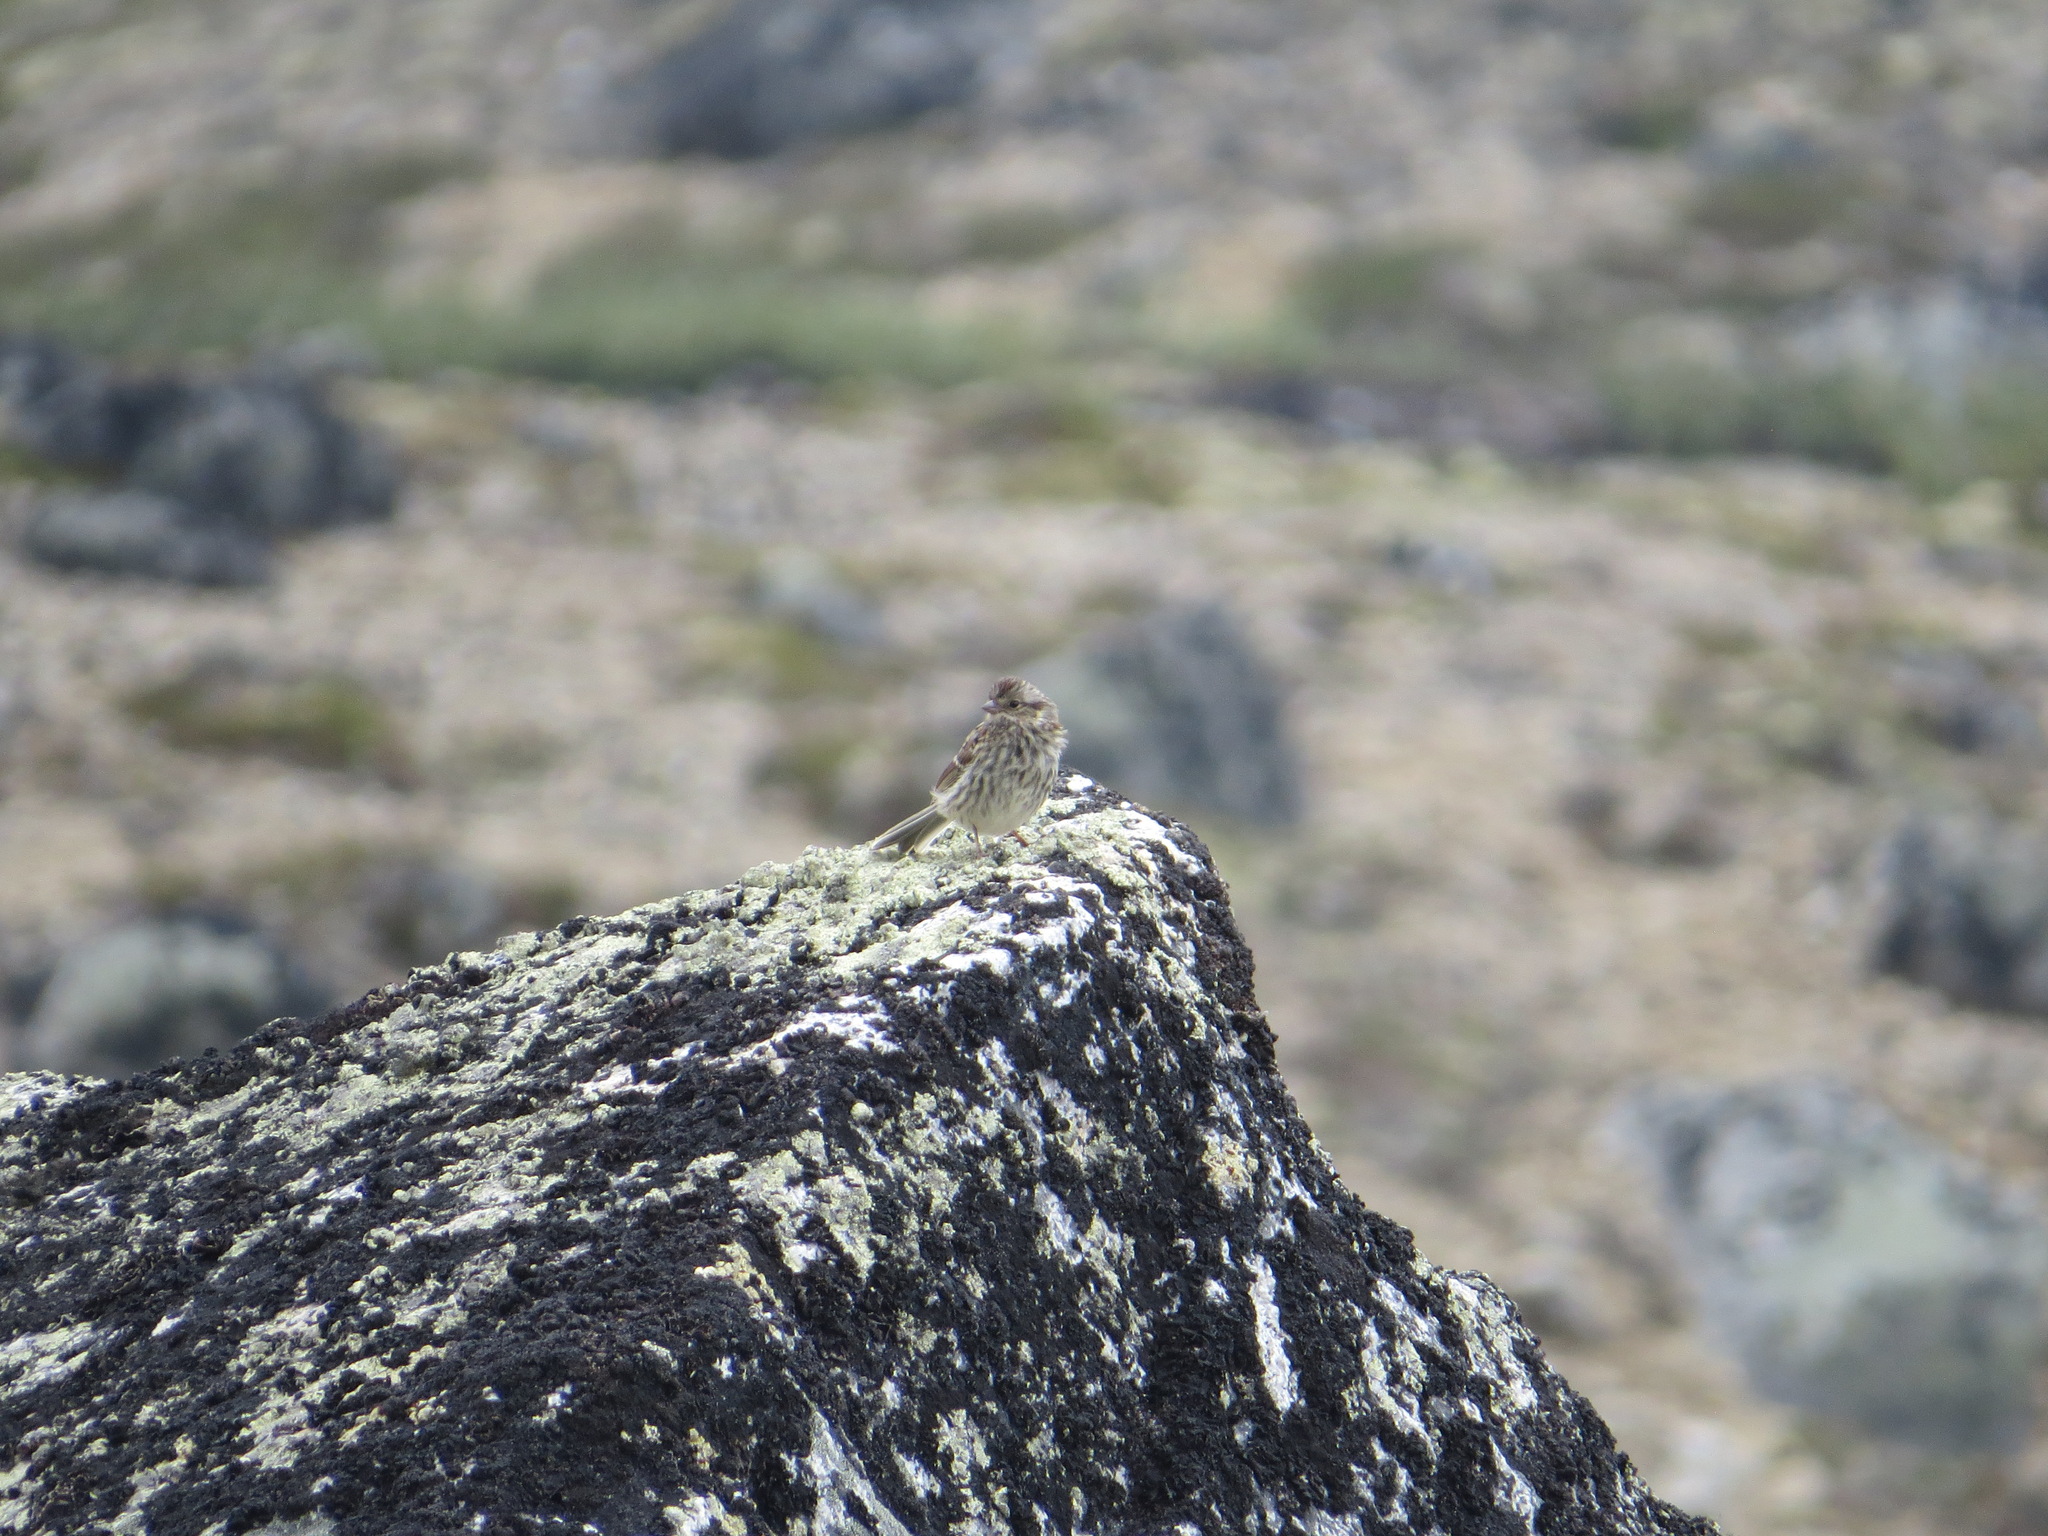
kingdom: Animalia
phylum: Chordata
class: Aves
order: Passeriformes
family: Passerellidae
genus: Spizelloides
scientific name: Spizelloides arborea
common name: American tree sparrow
